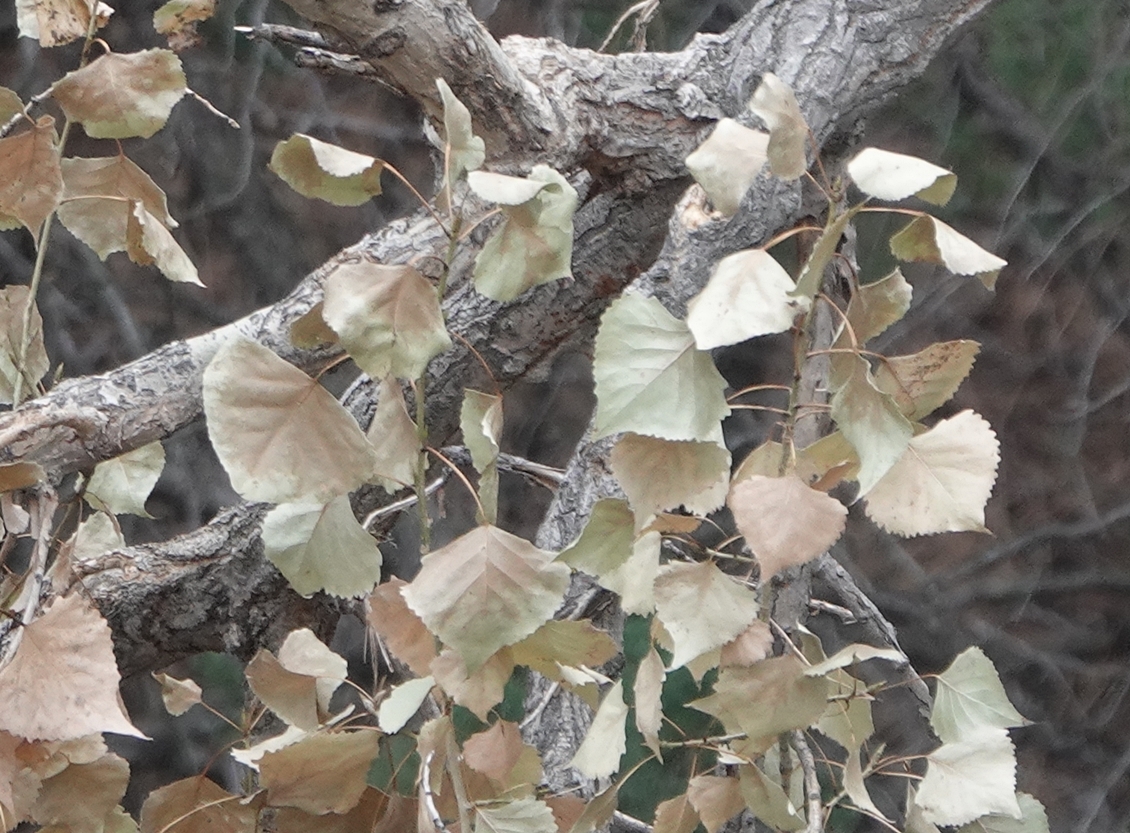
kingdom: Plantae
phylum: Tracheophyta
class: Magnoliopsida
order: Malpighiales
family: Salicaceae
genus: Populus
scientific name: Populus deltoides
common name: Eastern cottonwood
